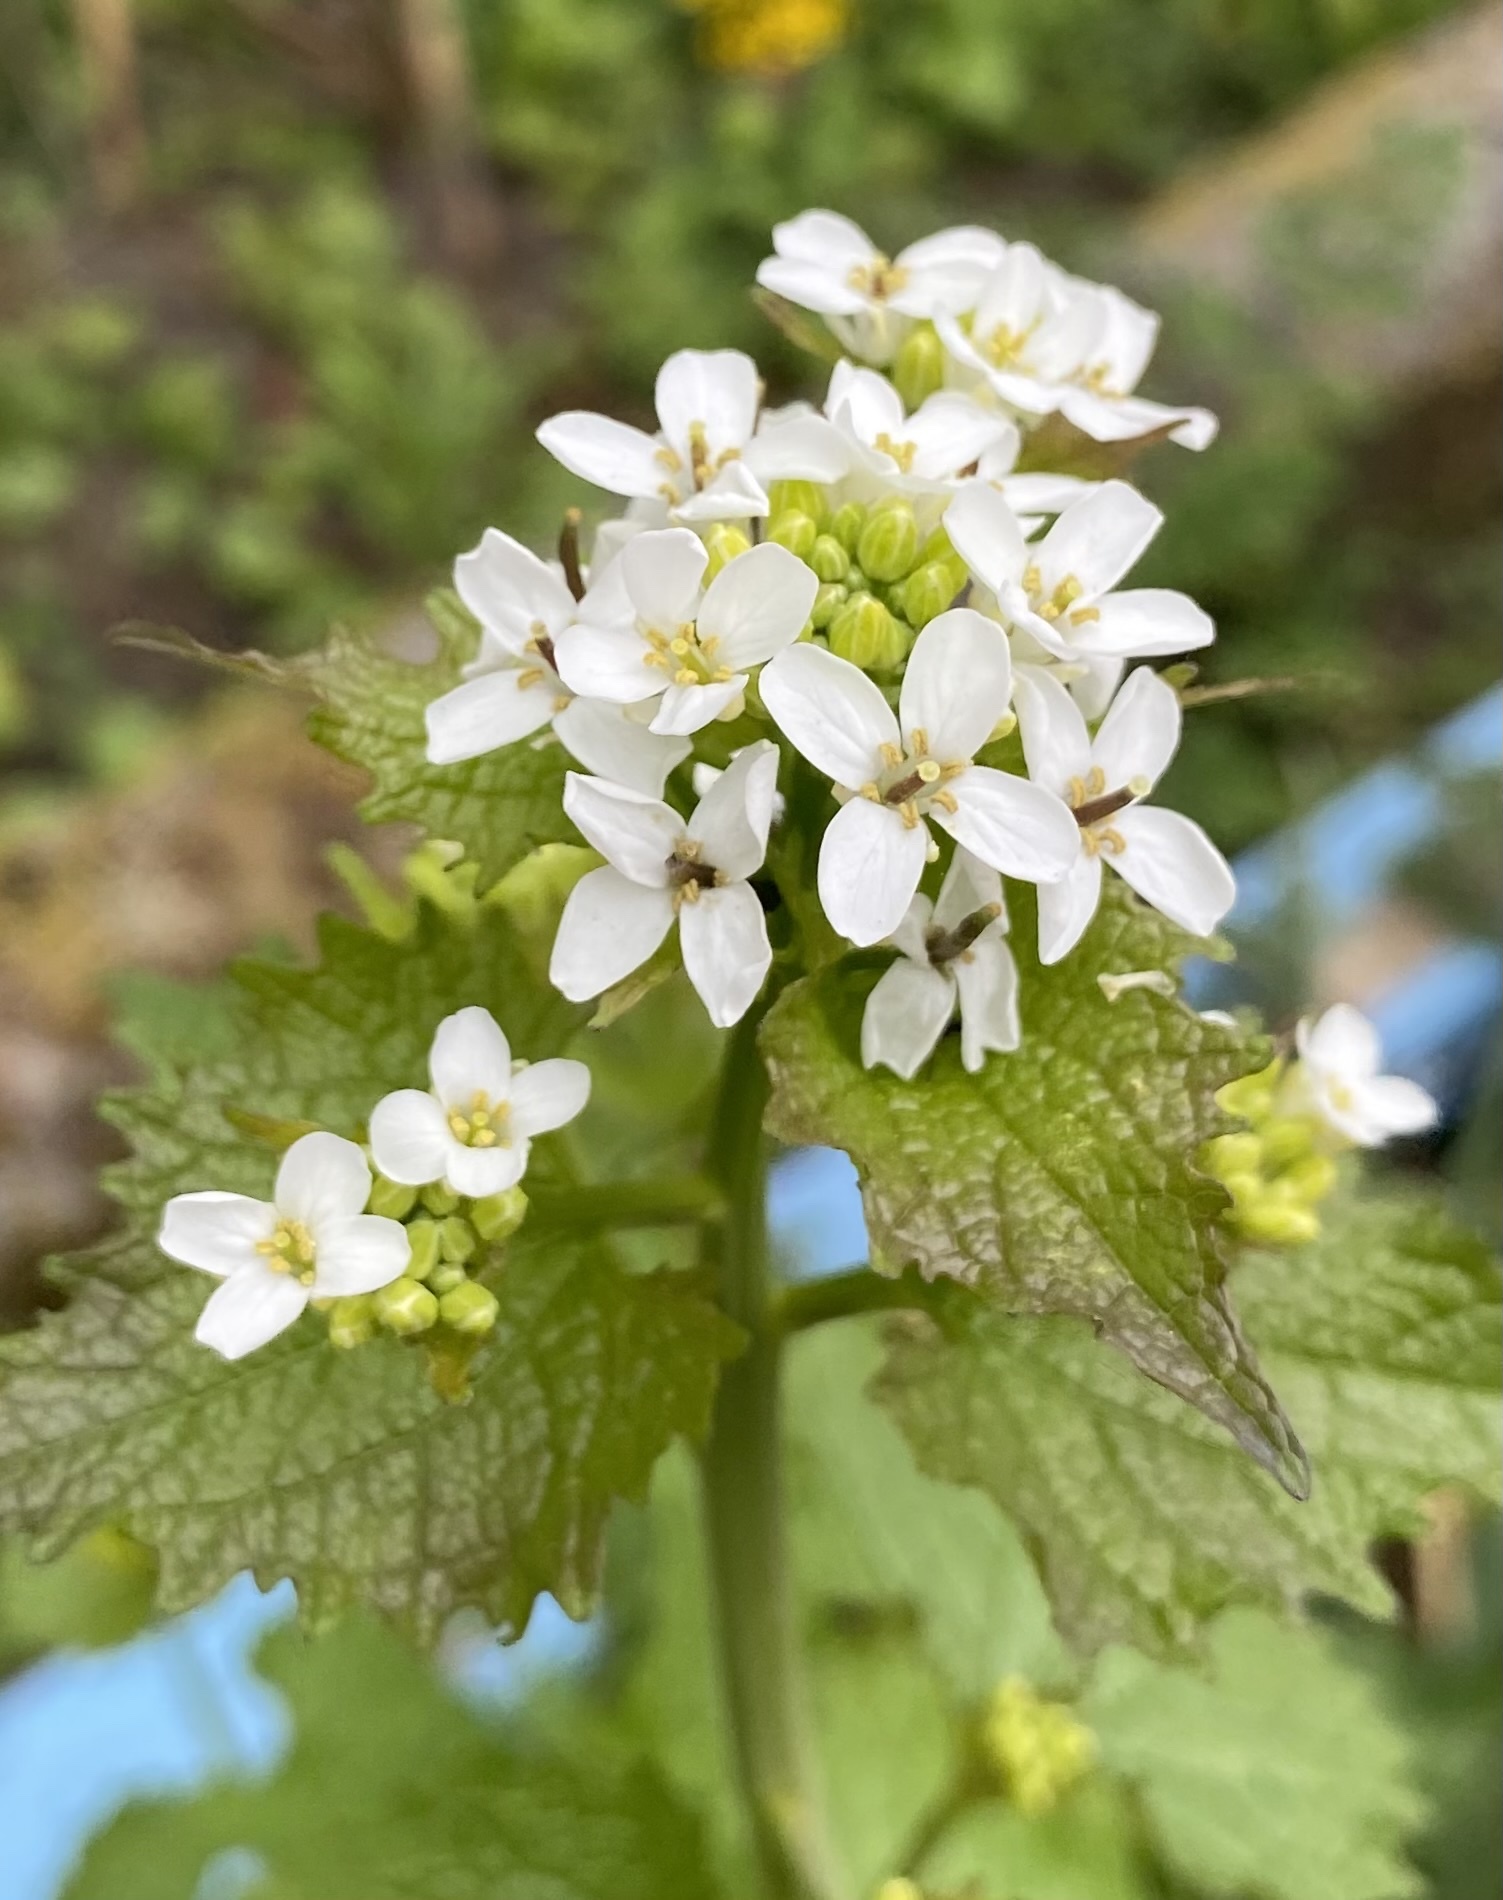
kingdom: Plantae
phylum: Tracheophyta
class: Magnoliopsida
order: Brassicales
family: Brassicaceae
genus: Alliaria
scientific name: Alliaria petiolata
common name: Garlic mustard
